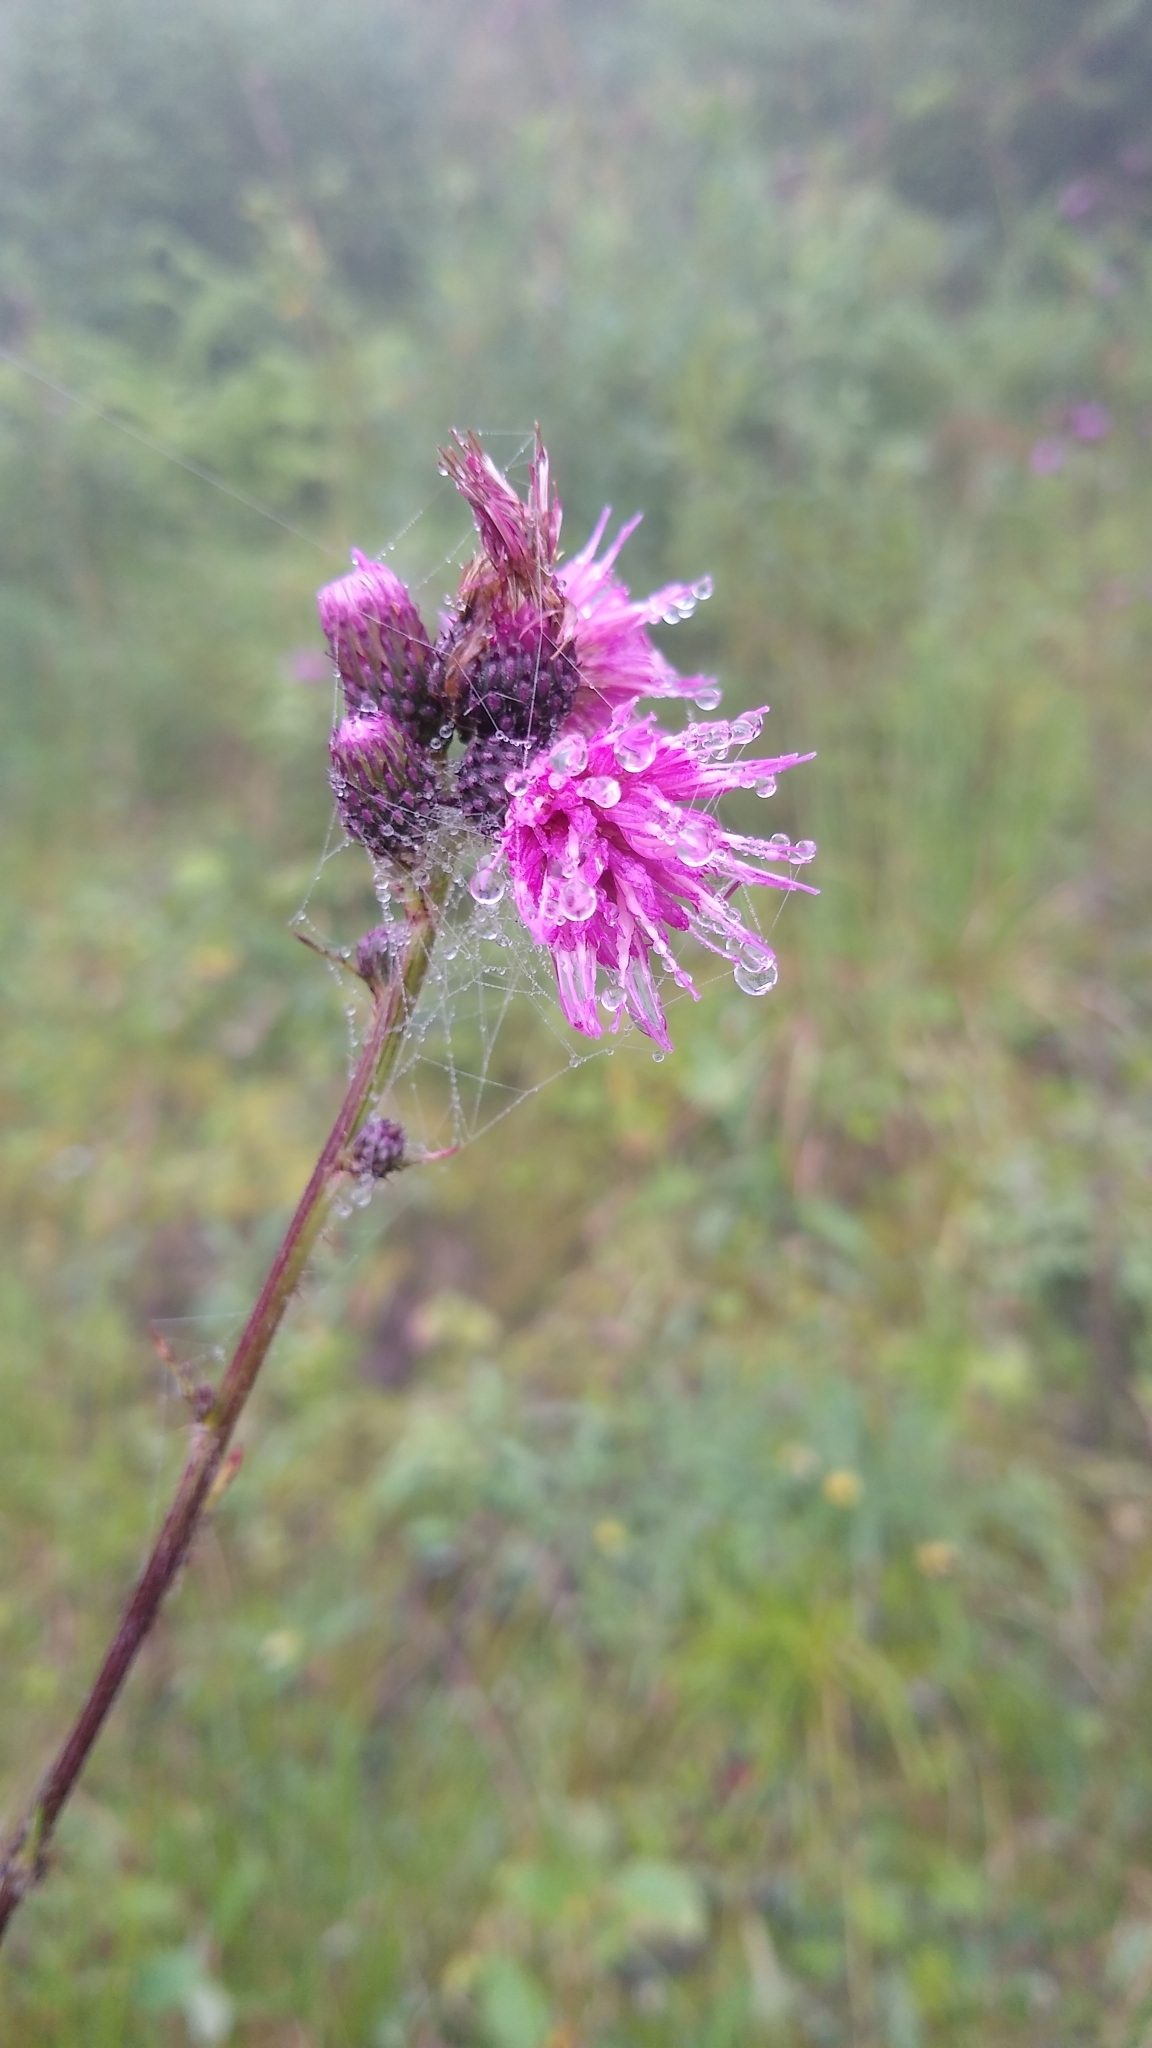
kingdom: Plantae
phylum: Tracheophyta
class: Magnoliopsida
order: Asterales
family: Asteraceae
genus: Cirsium
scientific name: Cirsium palustre
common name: Marsh thistle
